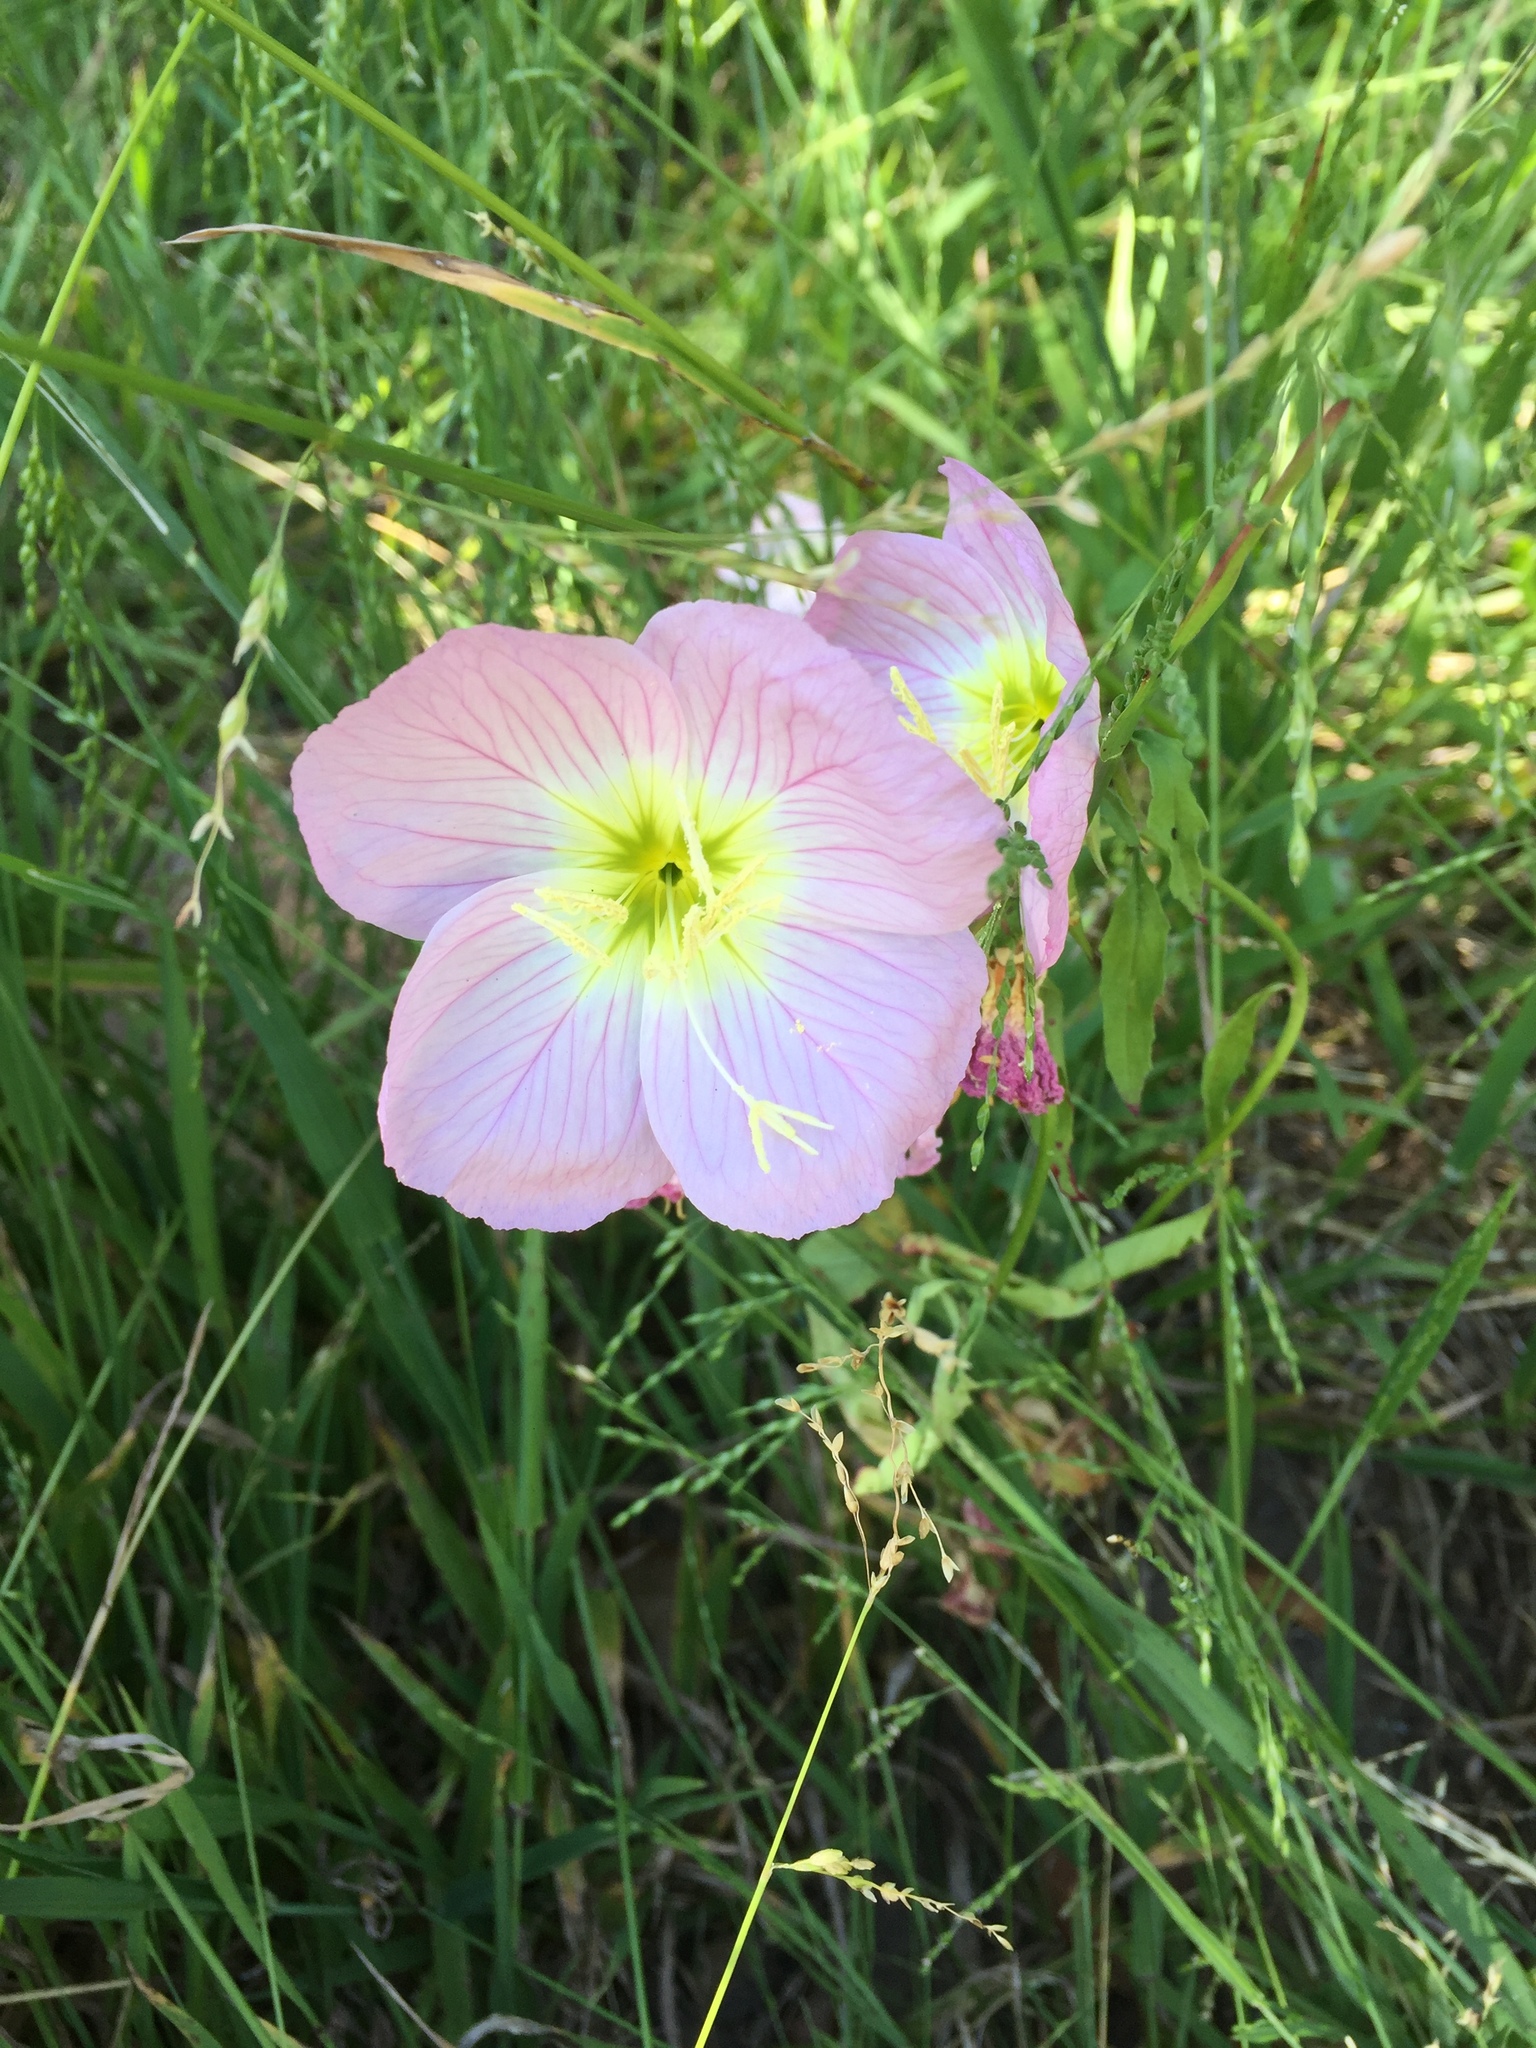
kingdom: Plantae
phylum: Tracheophyta
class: Magnoliopsida
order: Myrtales
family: Onagraceae
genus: Oenothera
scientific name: Oenothera speciosa
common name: White evening-primrose
